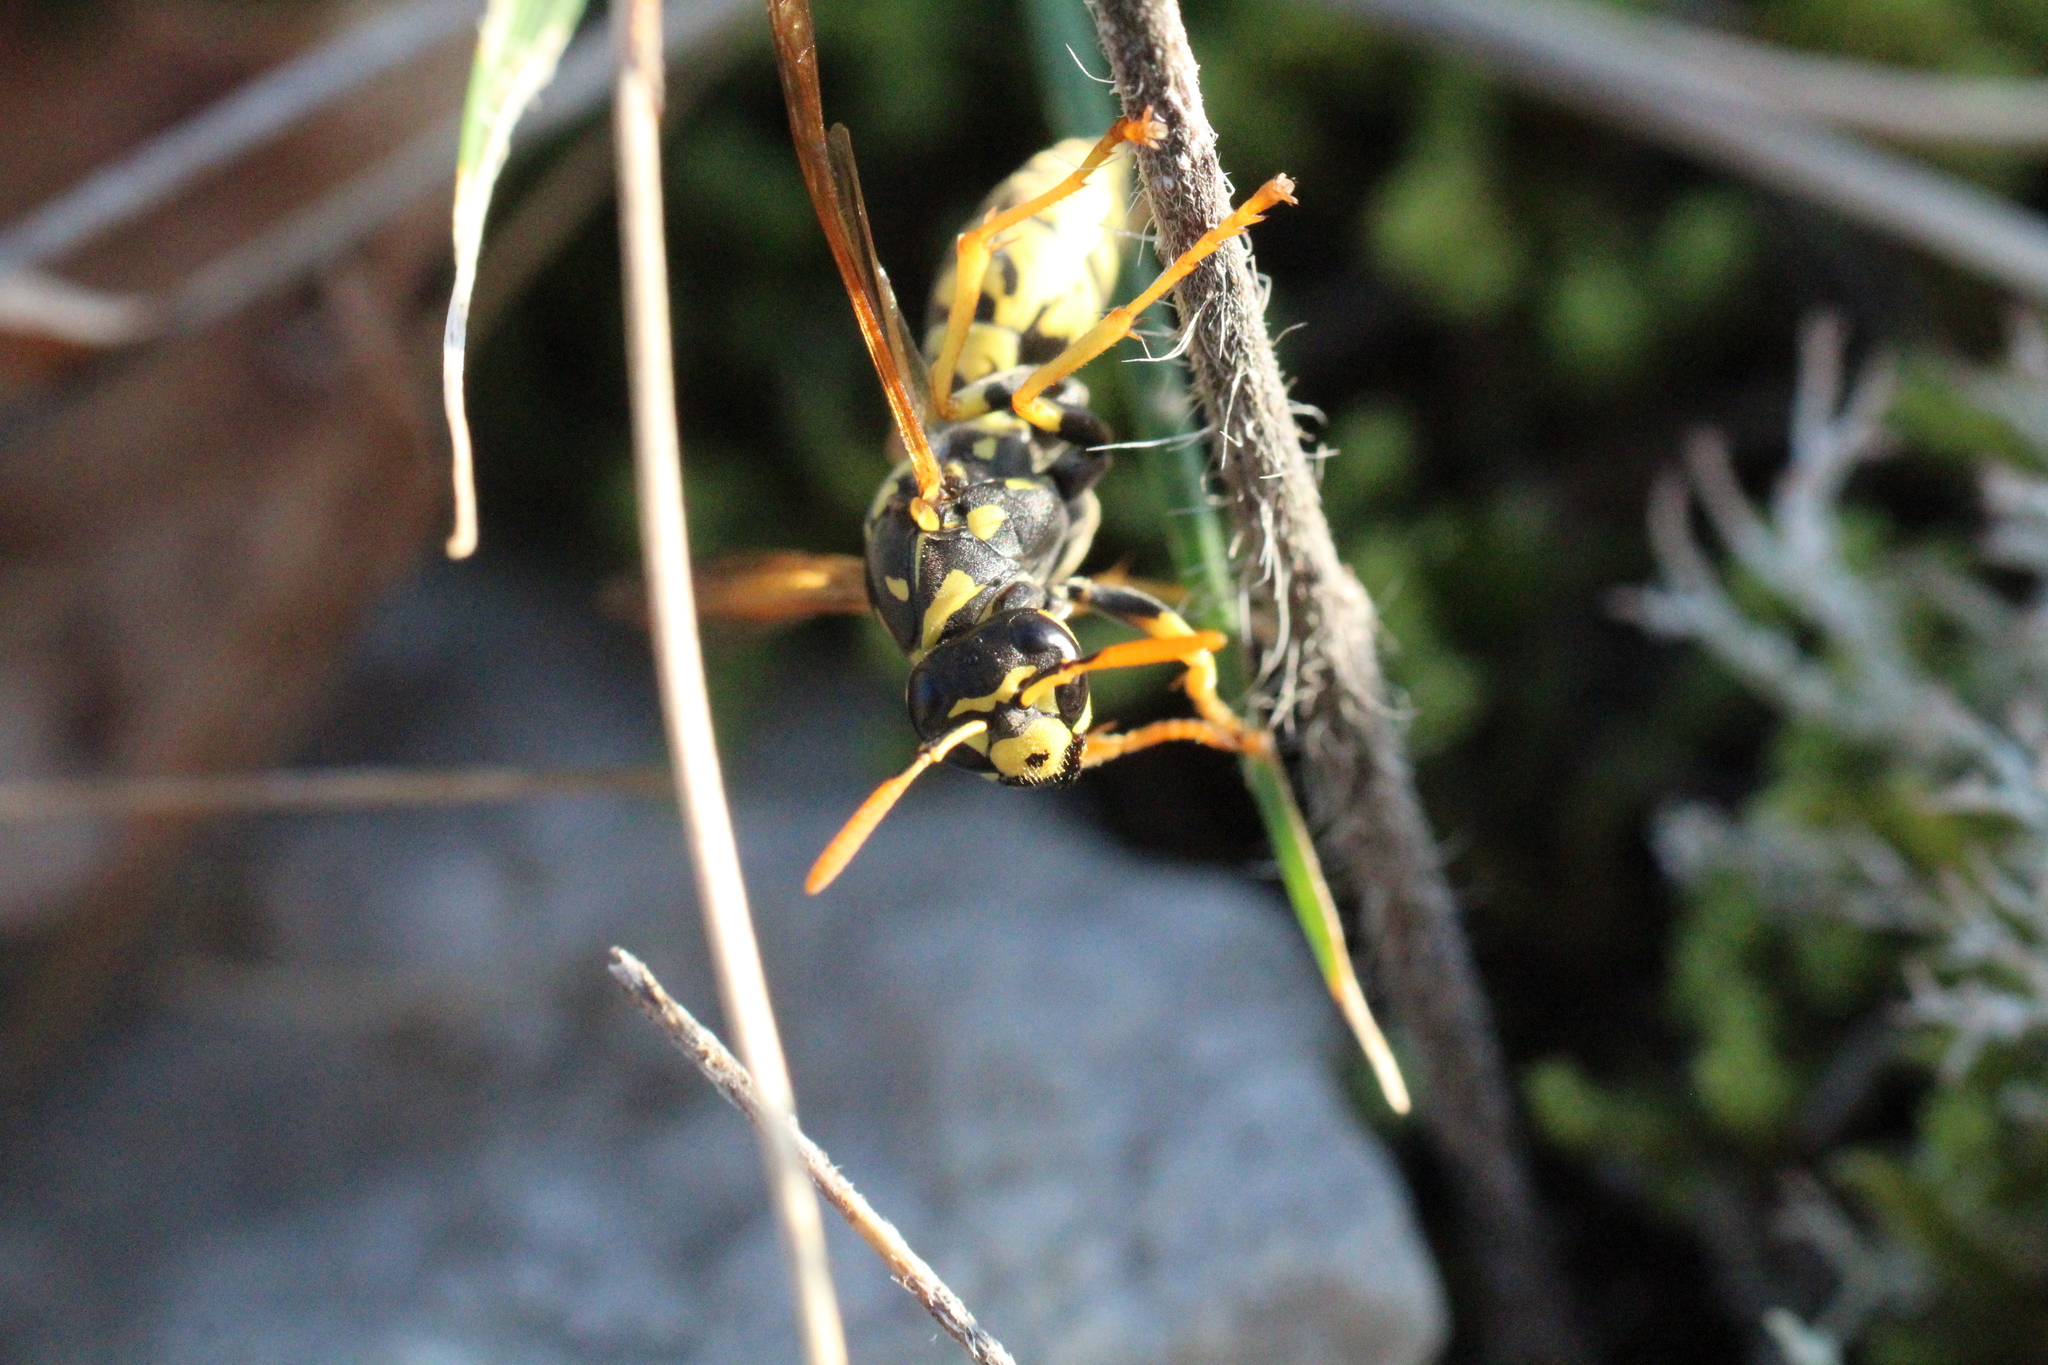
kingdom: Animalia
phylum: Arthropoda
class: Insecta
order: Hymenoptera
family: Eumenidae
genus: Polistes
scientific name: Polistes dominula
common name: Paper wasp
